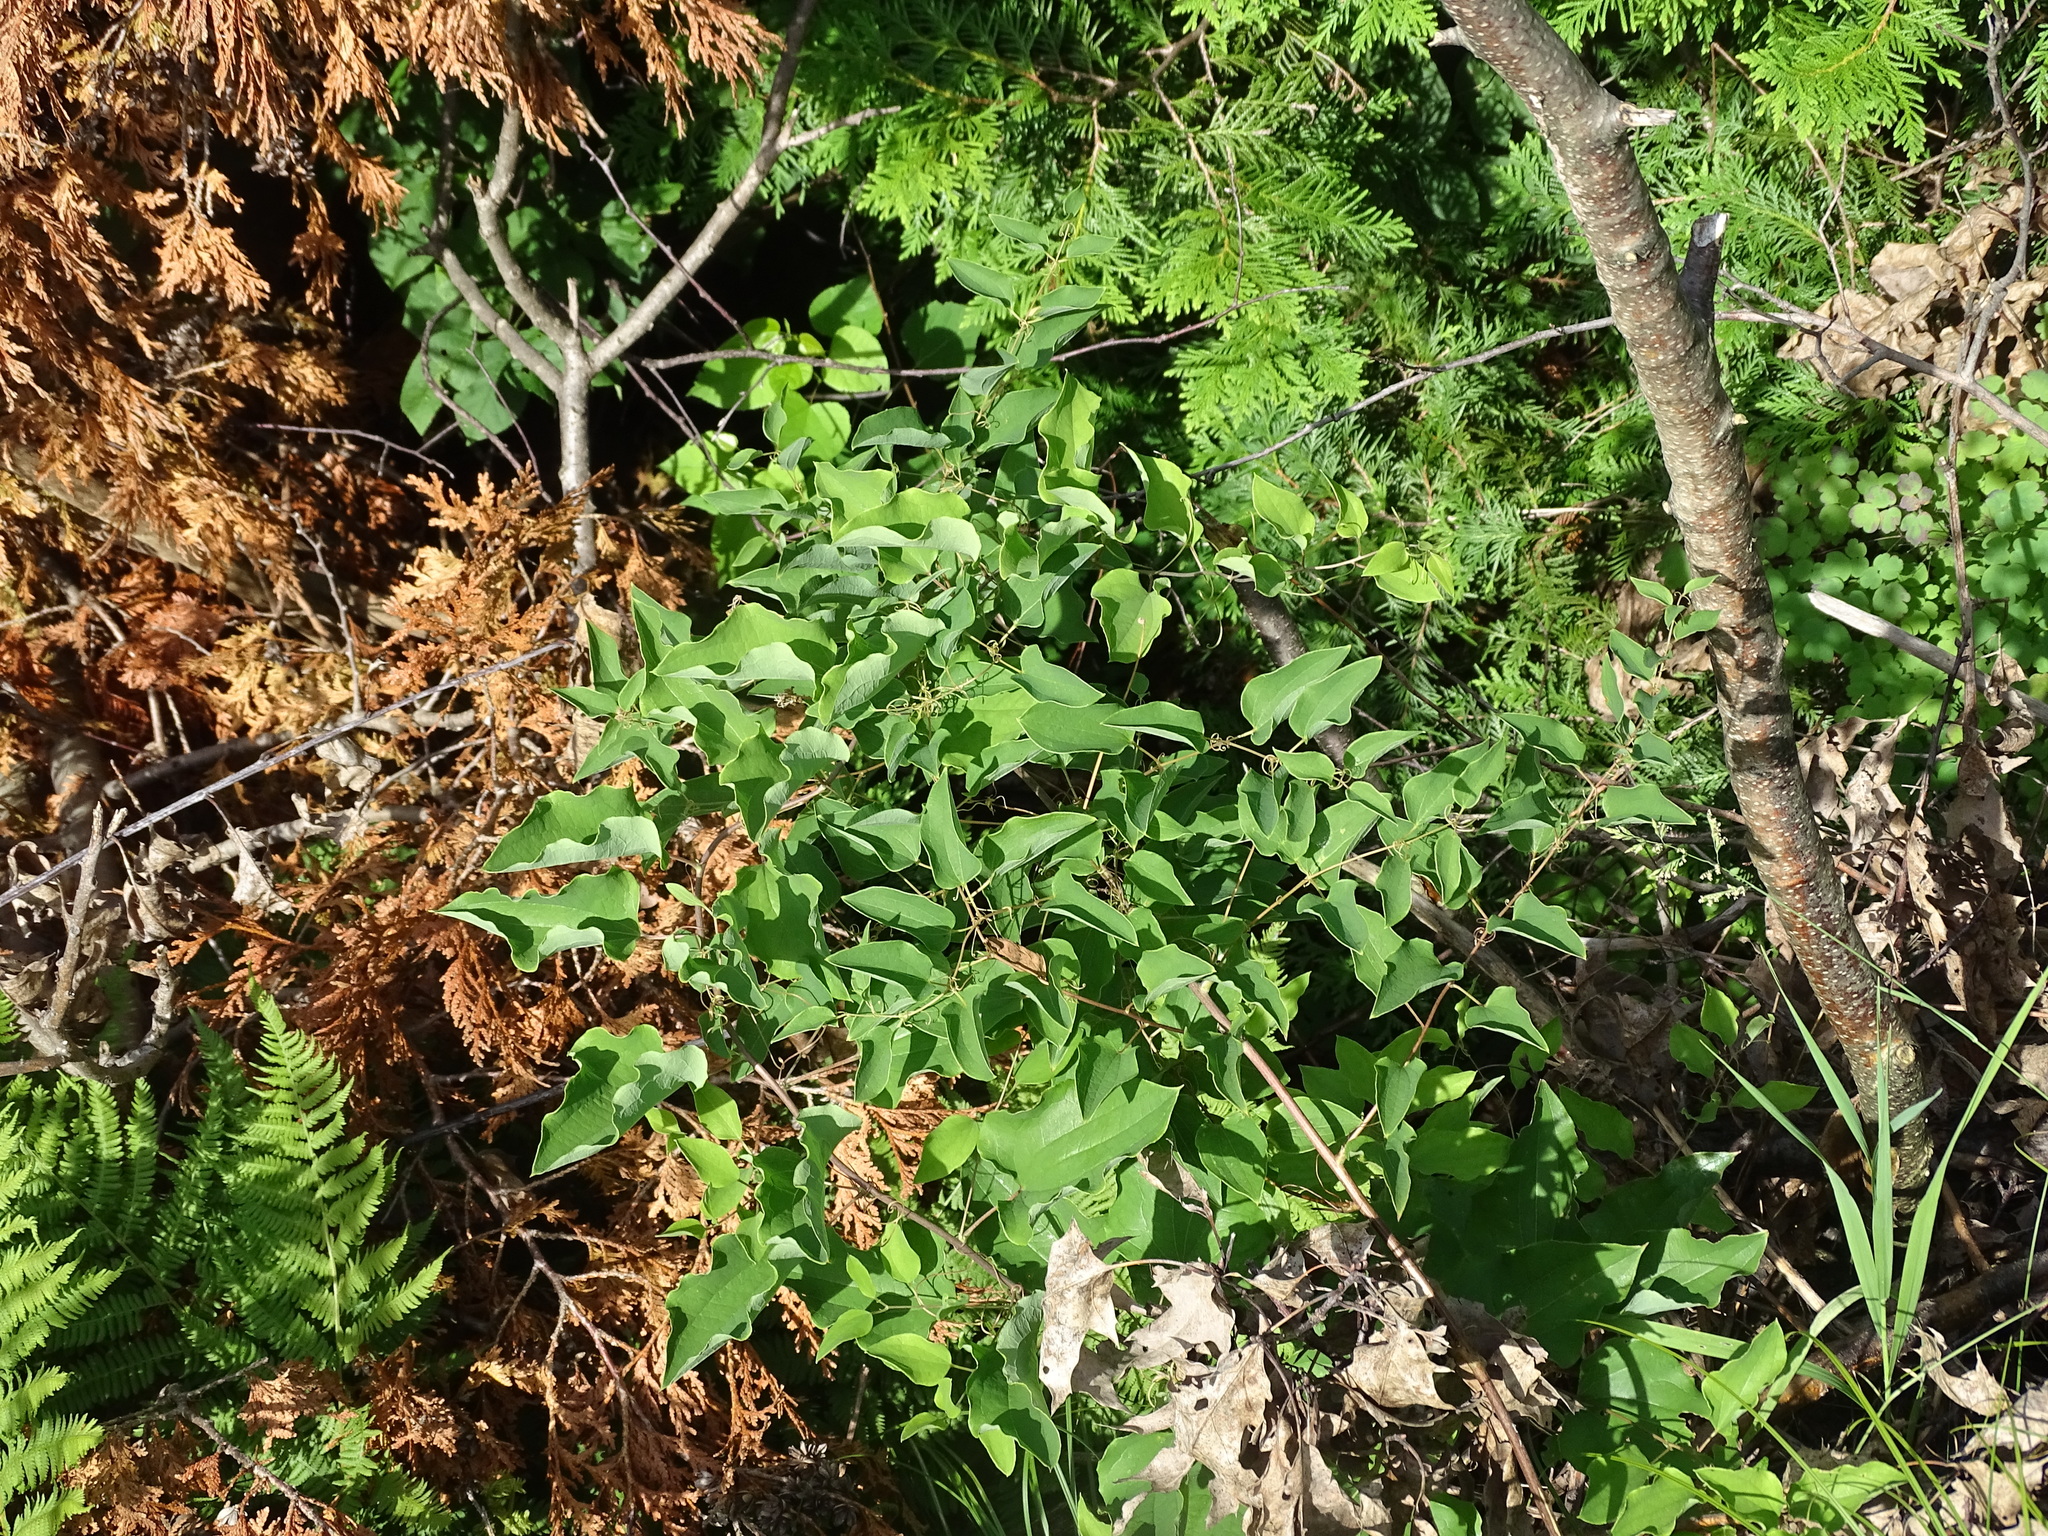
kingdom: Plantae
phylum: Tracheophyta
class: Liliopsida
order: Liliales
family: Smilacaceae
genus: Smilax
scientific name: Smilax herbacea
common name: Jacob's-ladder
